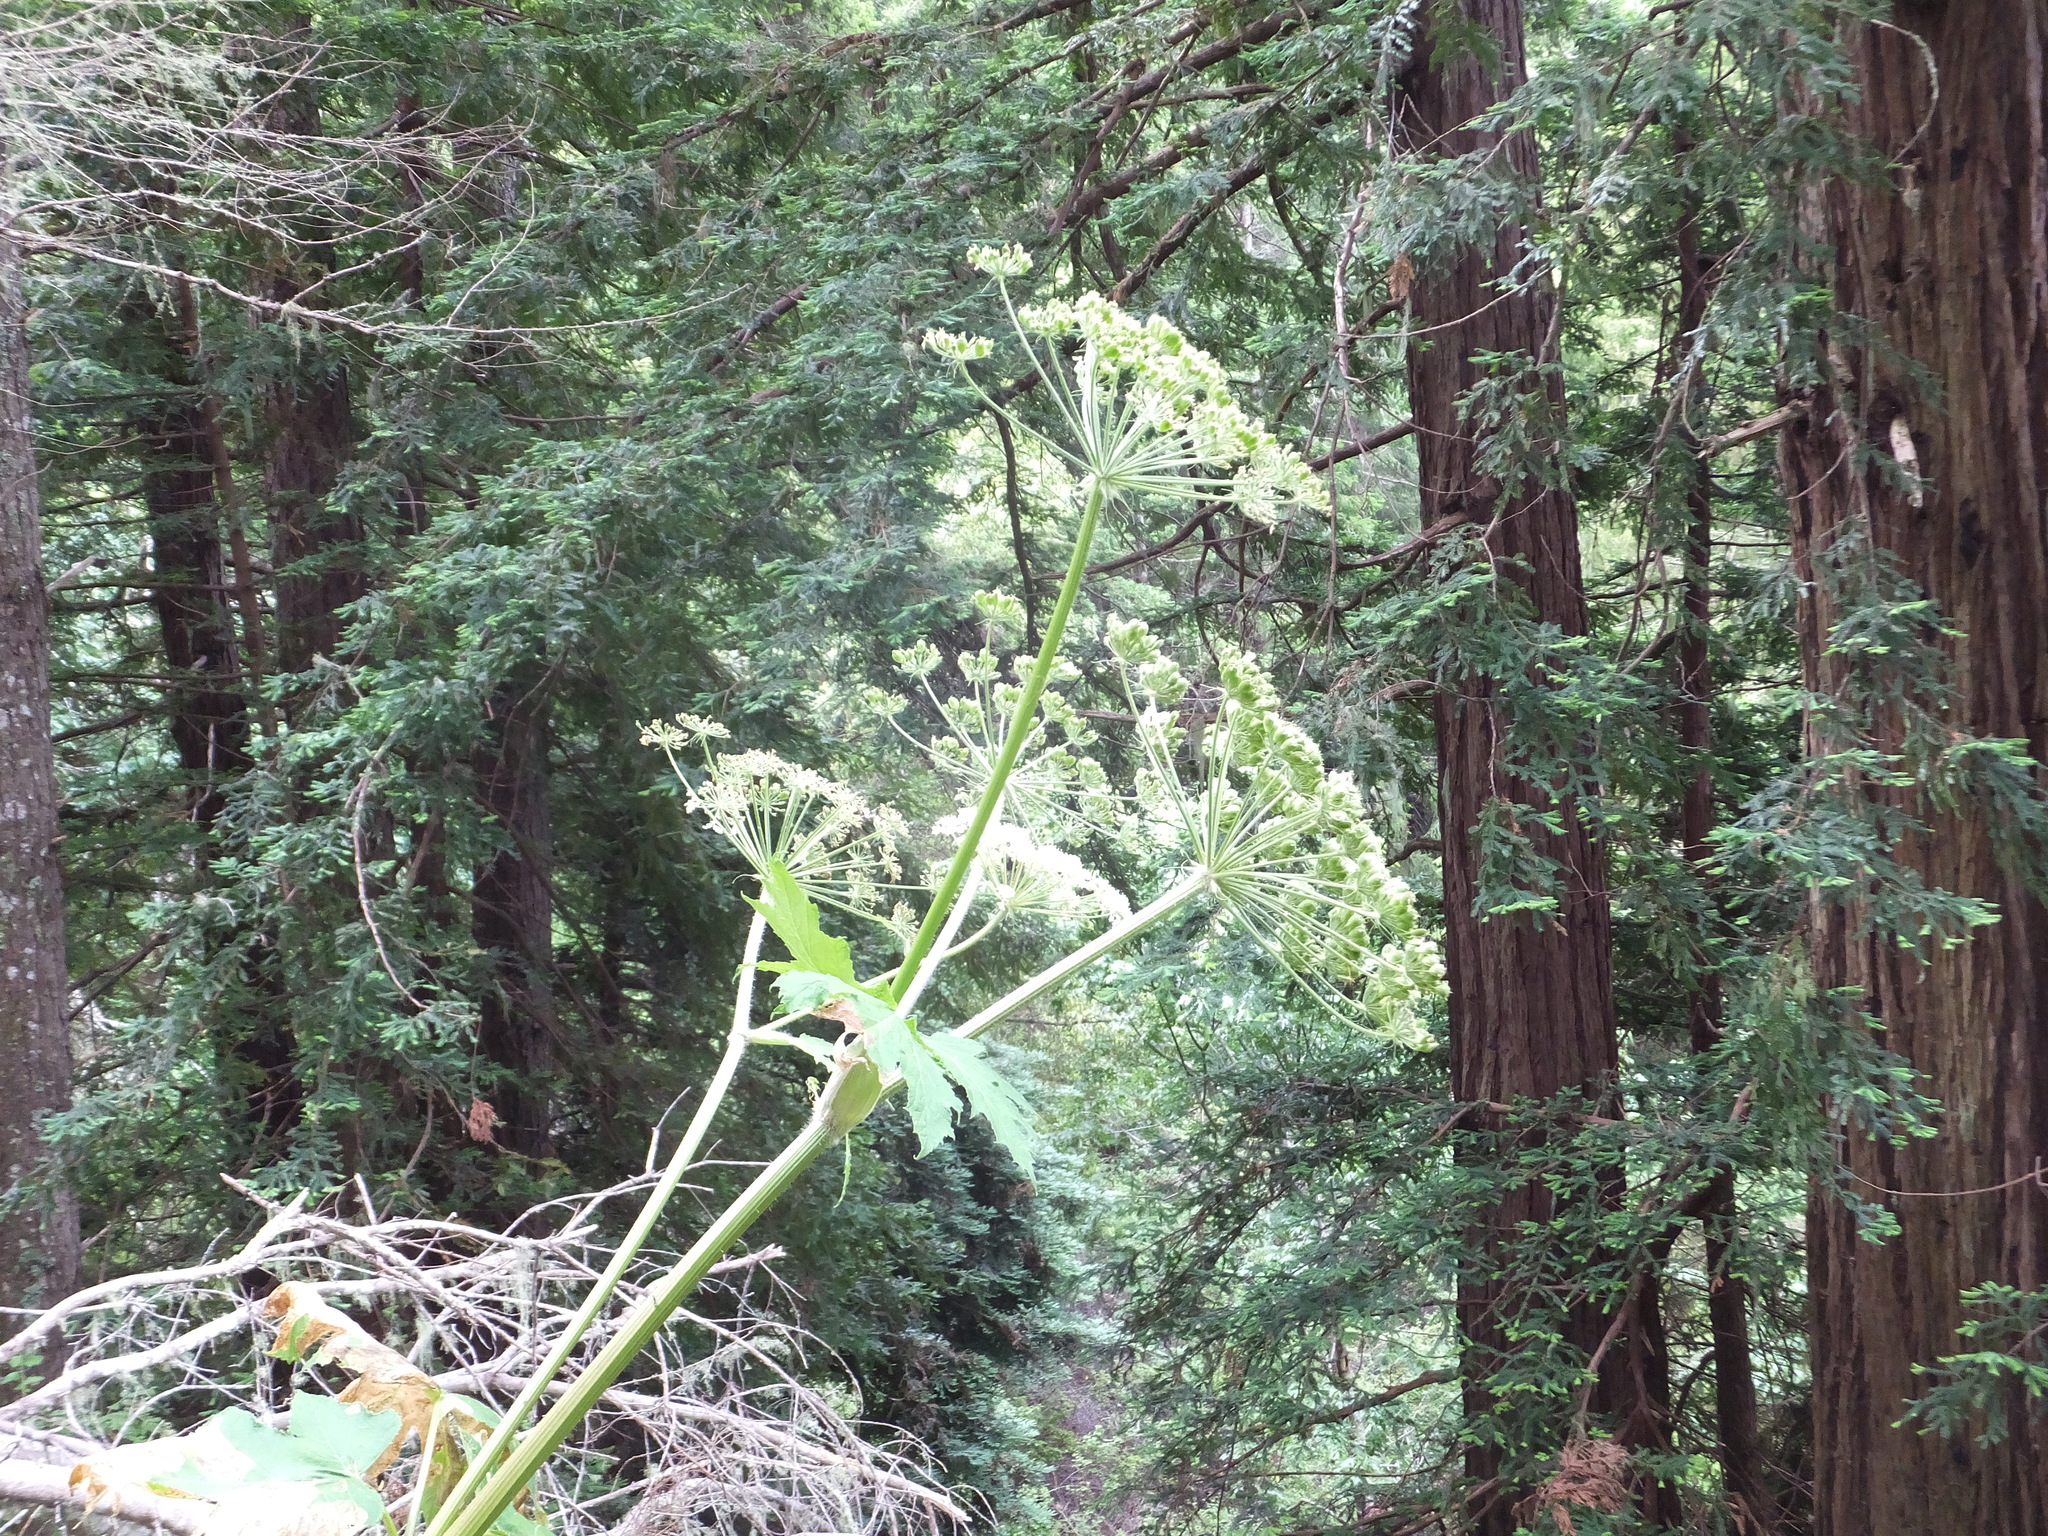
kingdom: Plantae
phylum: Tracheophyta
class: Magnoliopsida
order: Apiales
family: Apiaceae
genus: Heracleum
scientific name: Heracleum maximum
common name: American cow parsnip
